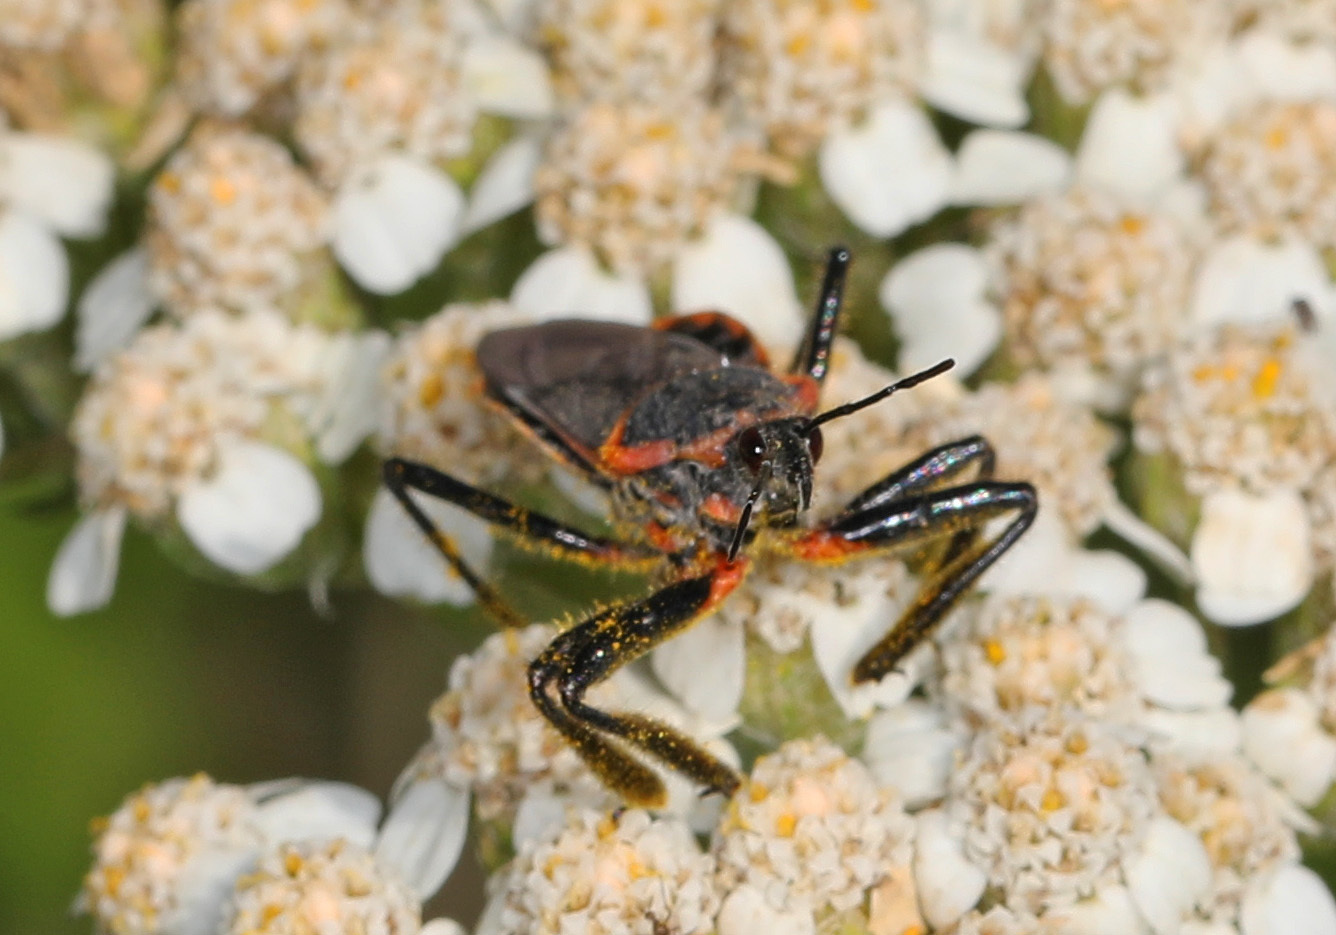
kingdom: Animalia
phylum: Arthropoda
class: Insecta
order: Hemiptera
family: Reduviidae
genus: Apiomerus
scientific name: Apiomerus crassipes
